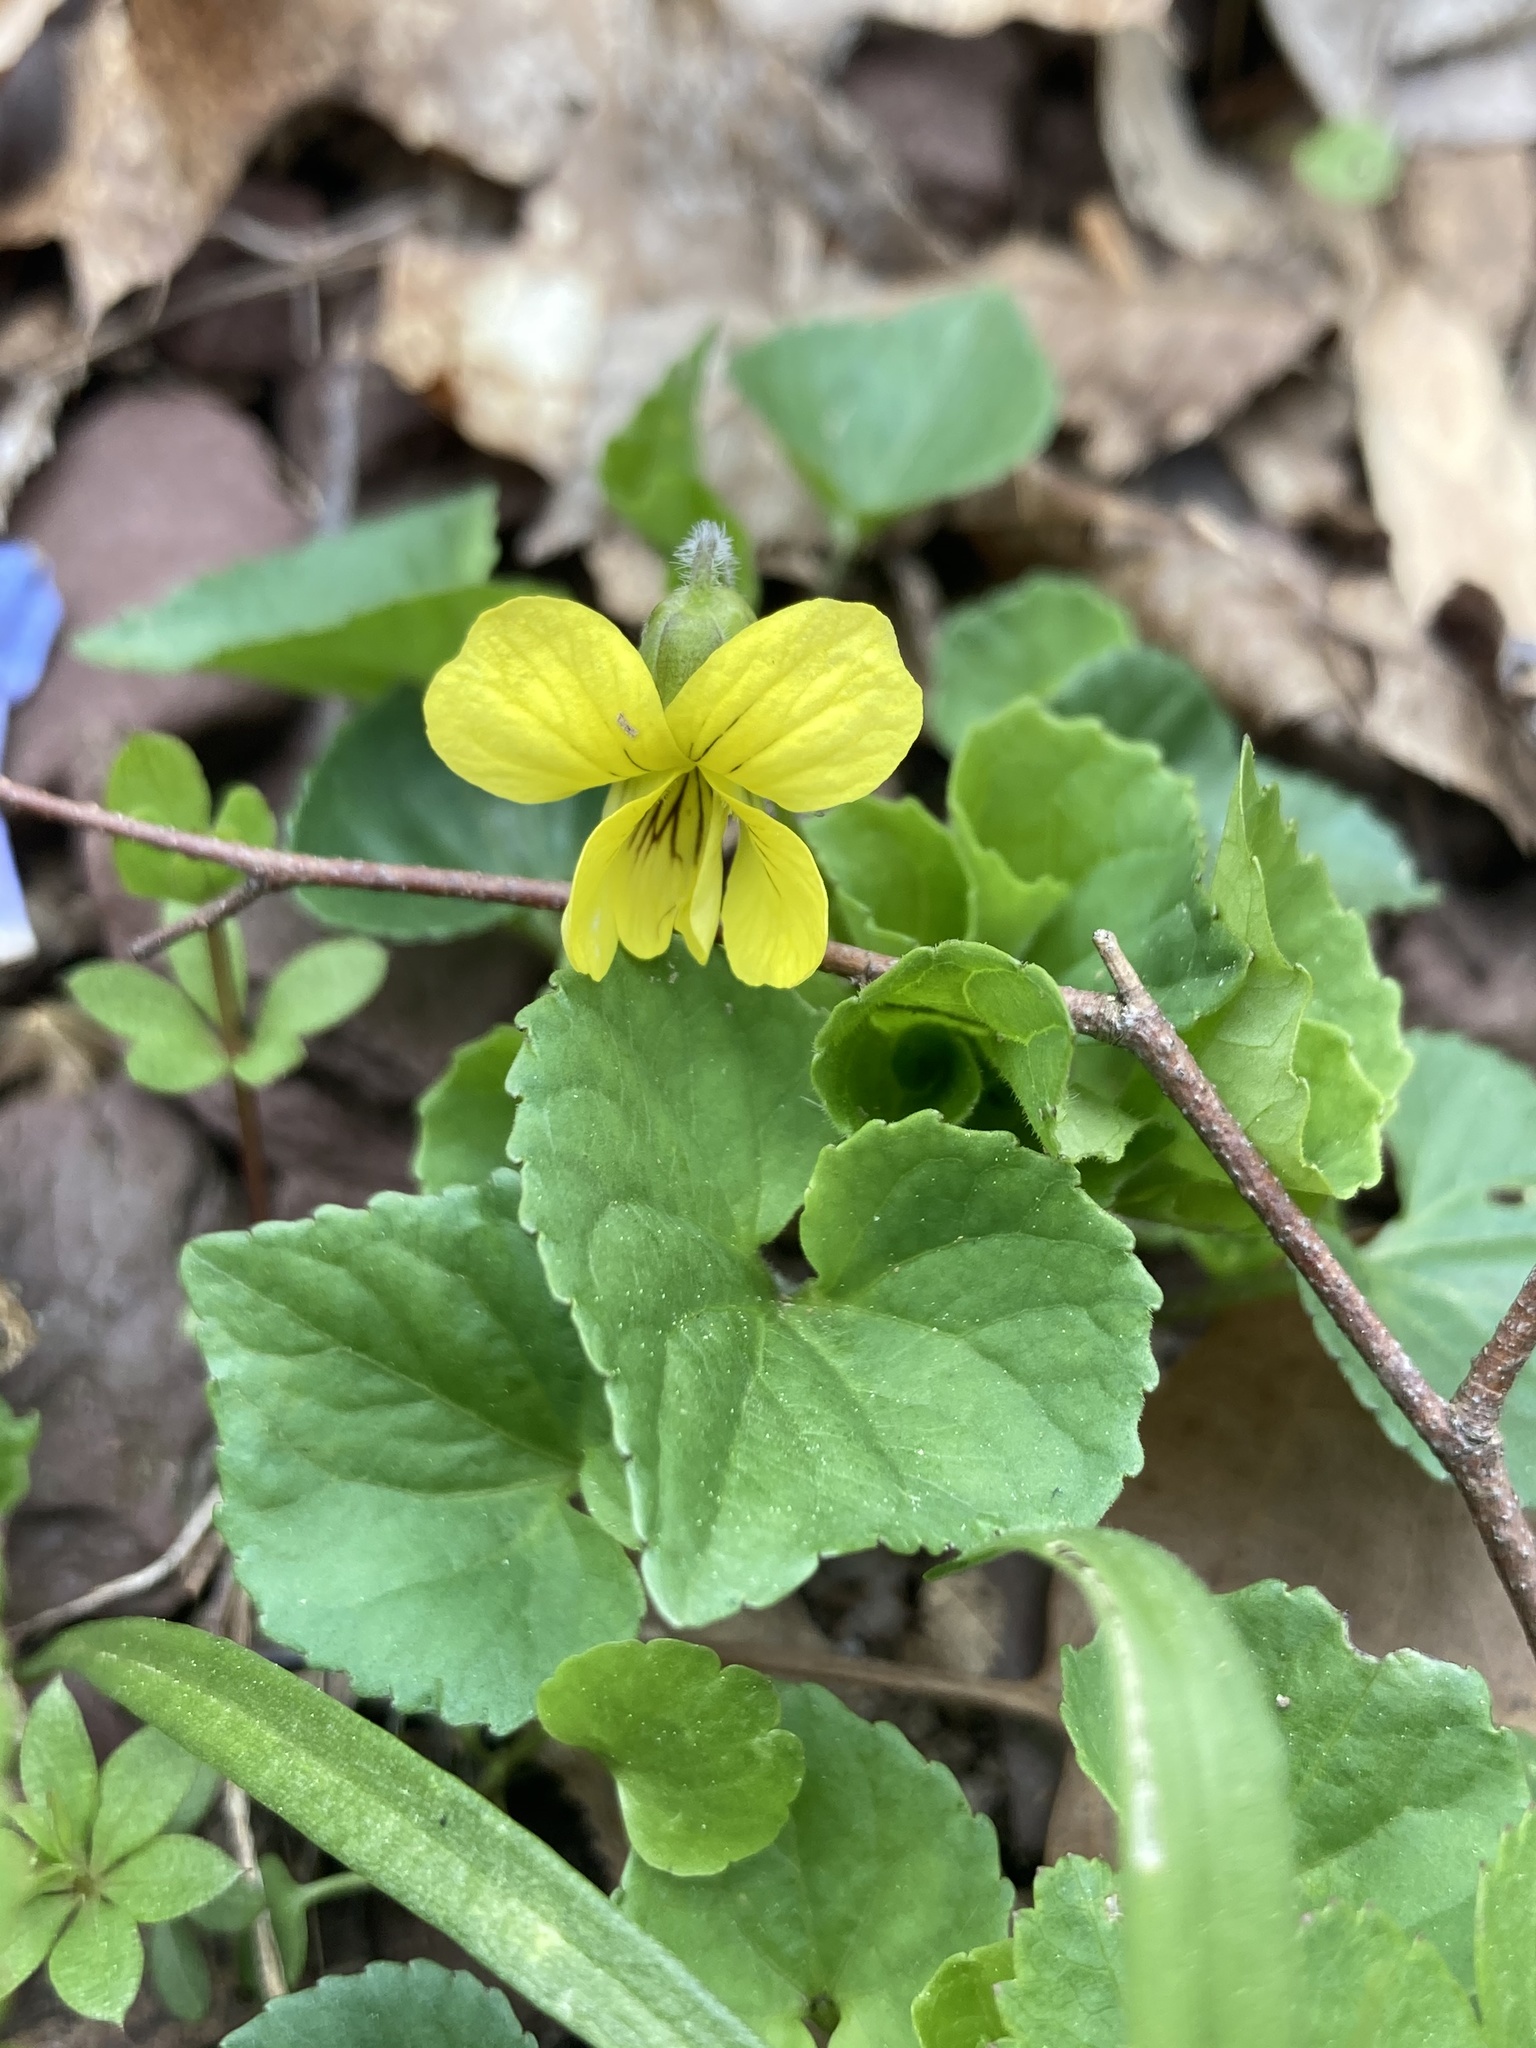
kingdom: Plantae
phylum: Tracheophyta
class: Magnoliopsida
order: Malpighiales
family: Violaceae
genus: Viola
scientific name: Viola eriocarpa
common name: Smooth yellow violet
